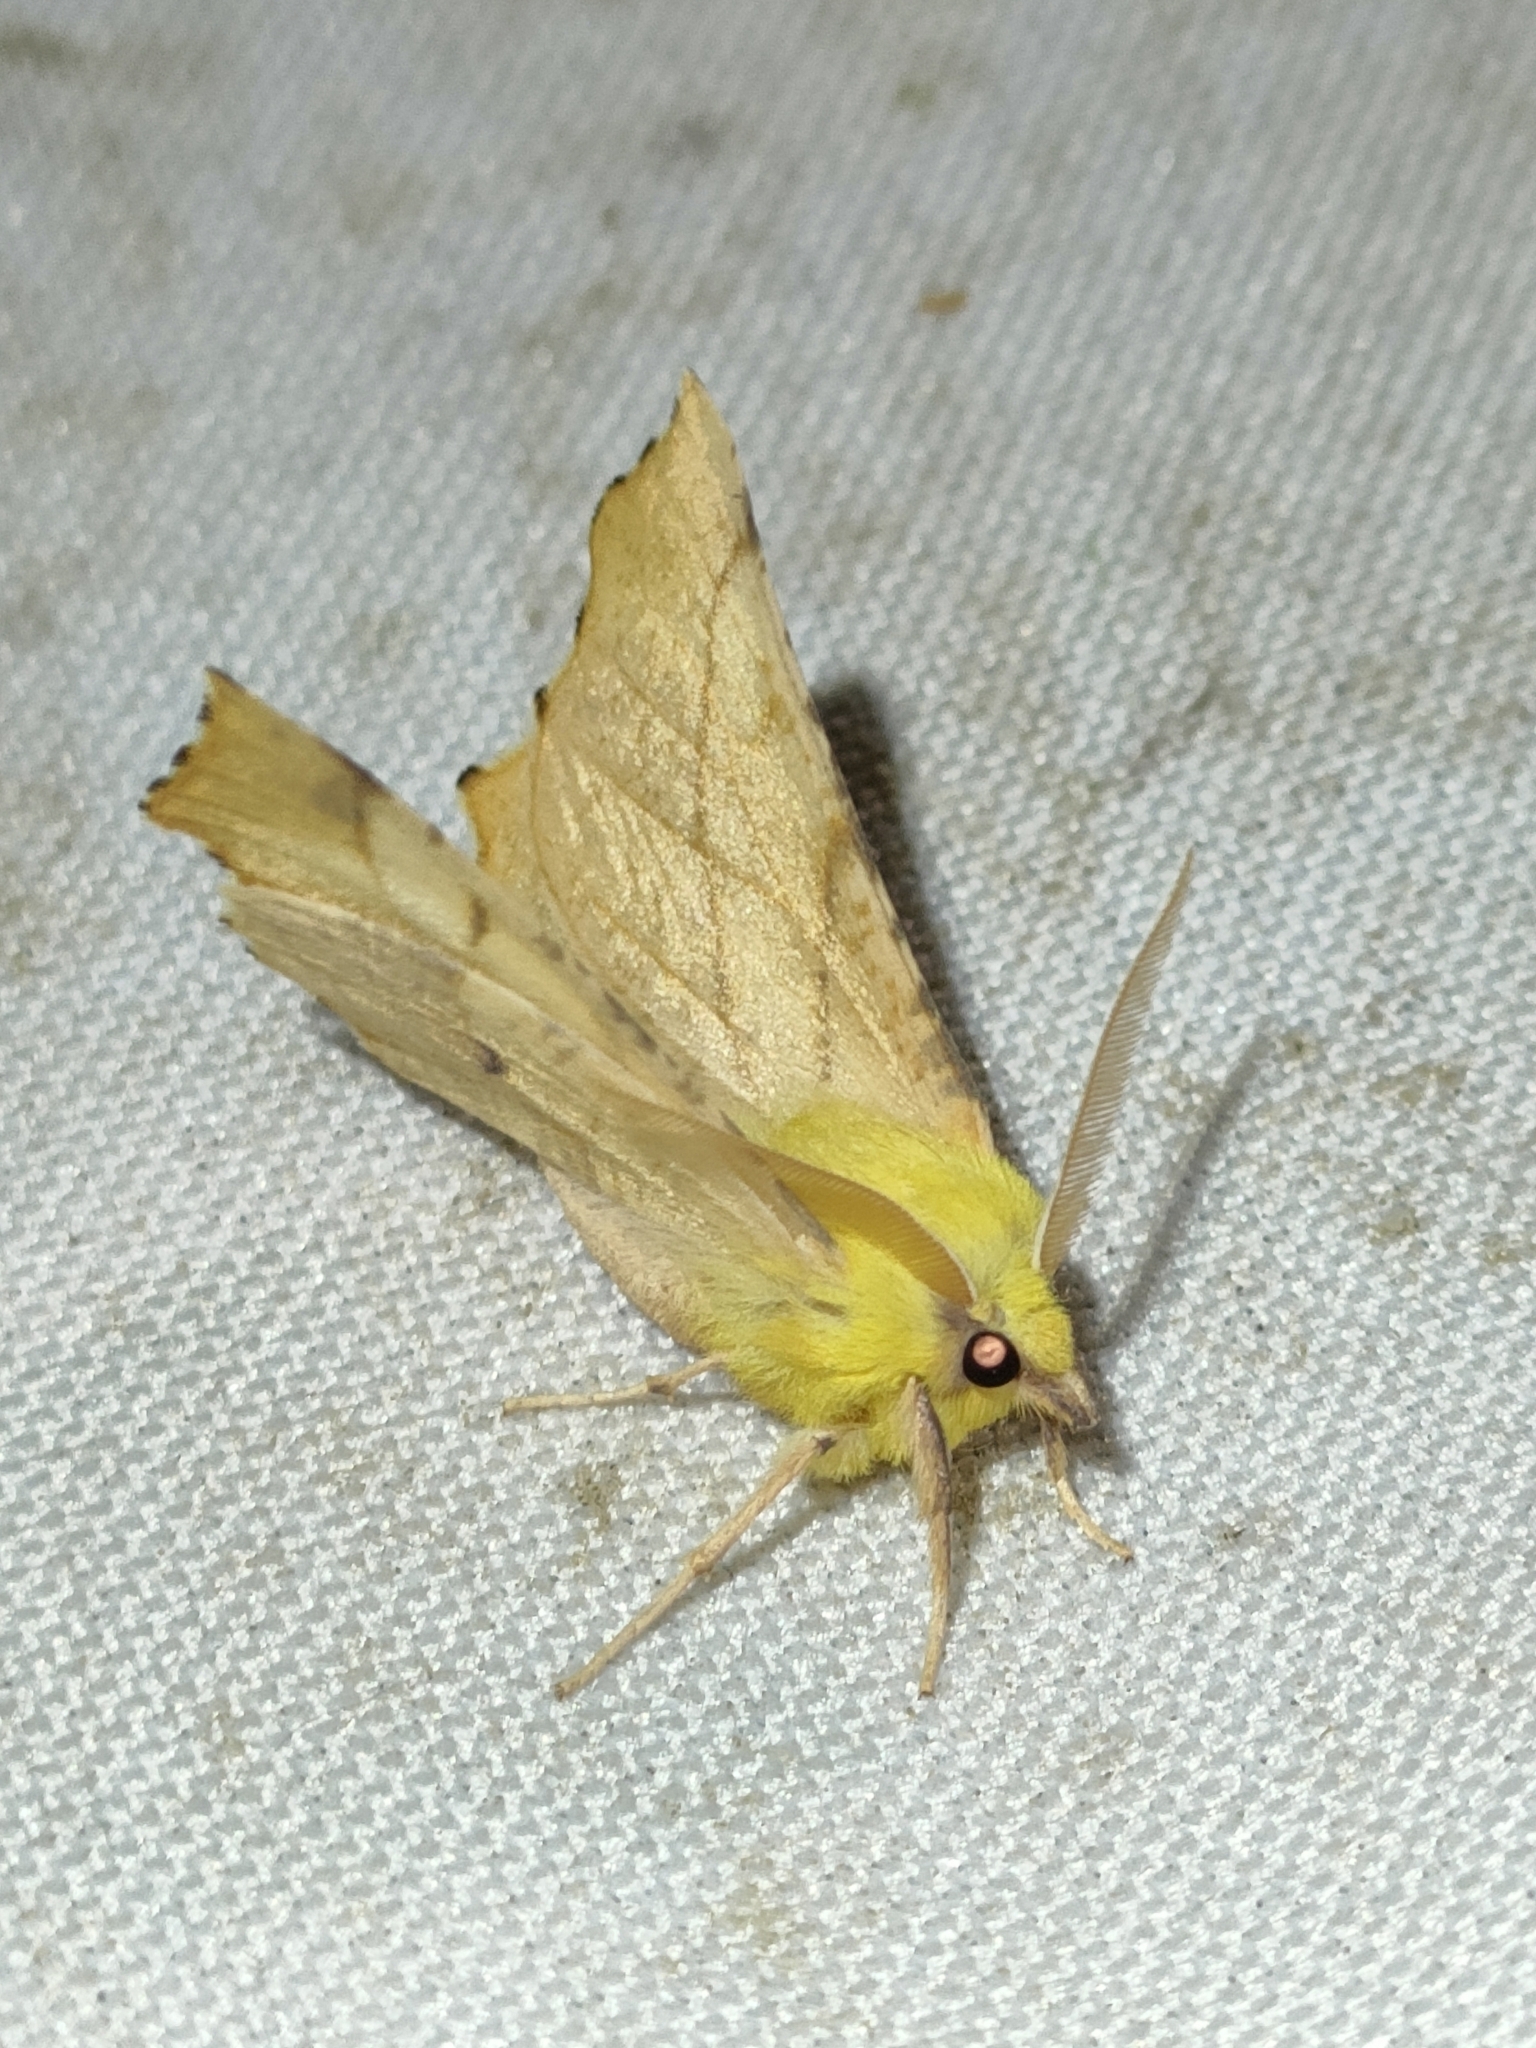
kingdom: Animalia
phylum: Arthropoda
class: Insecta
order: Lepidoptera
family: Geometridae
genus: Ennomos
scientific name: Ennomos alniaria
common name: Canary-shouldered thorn
